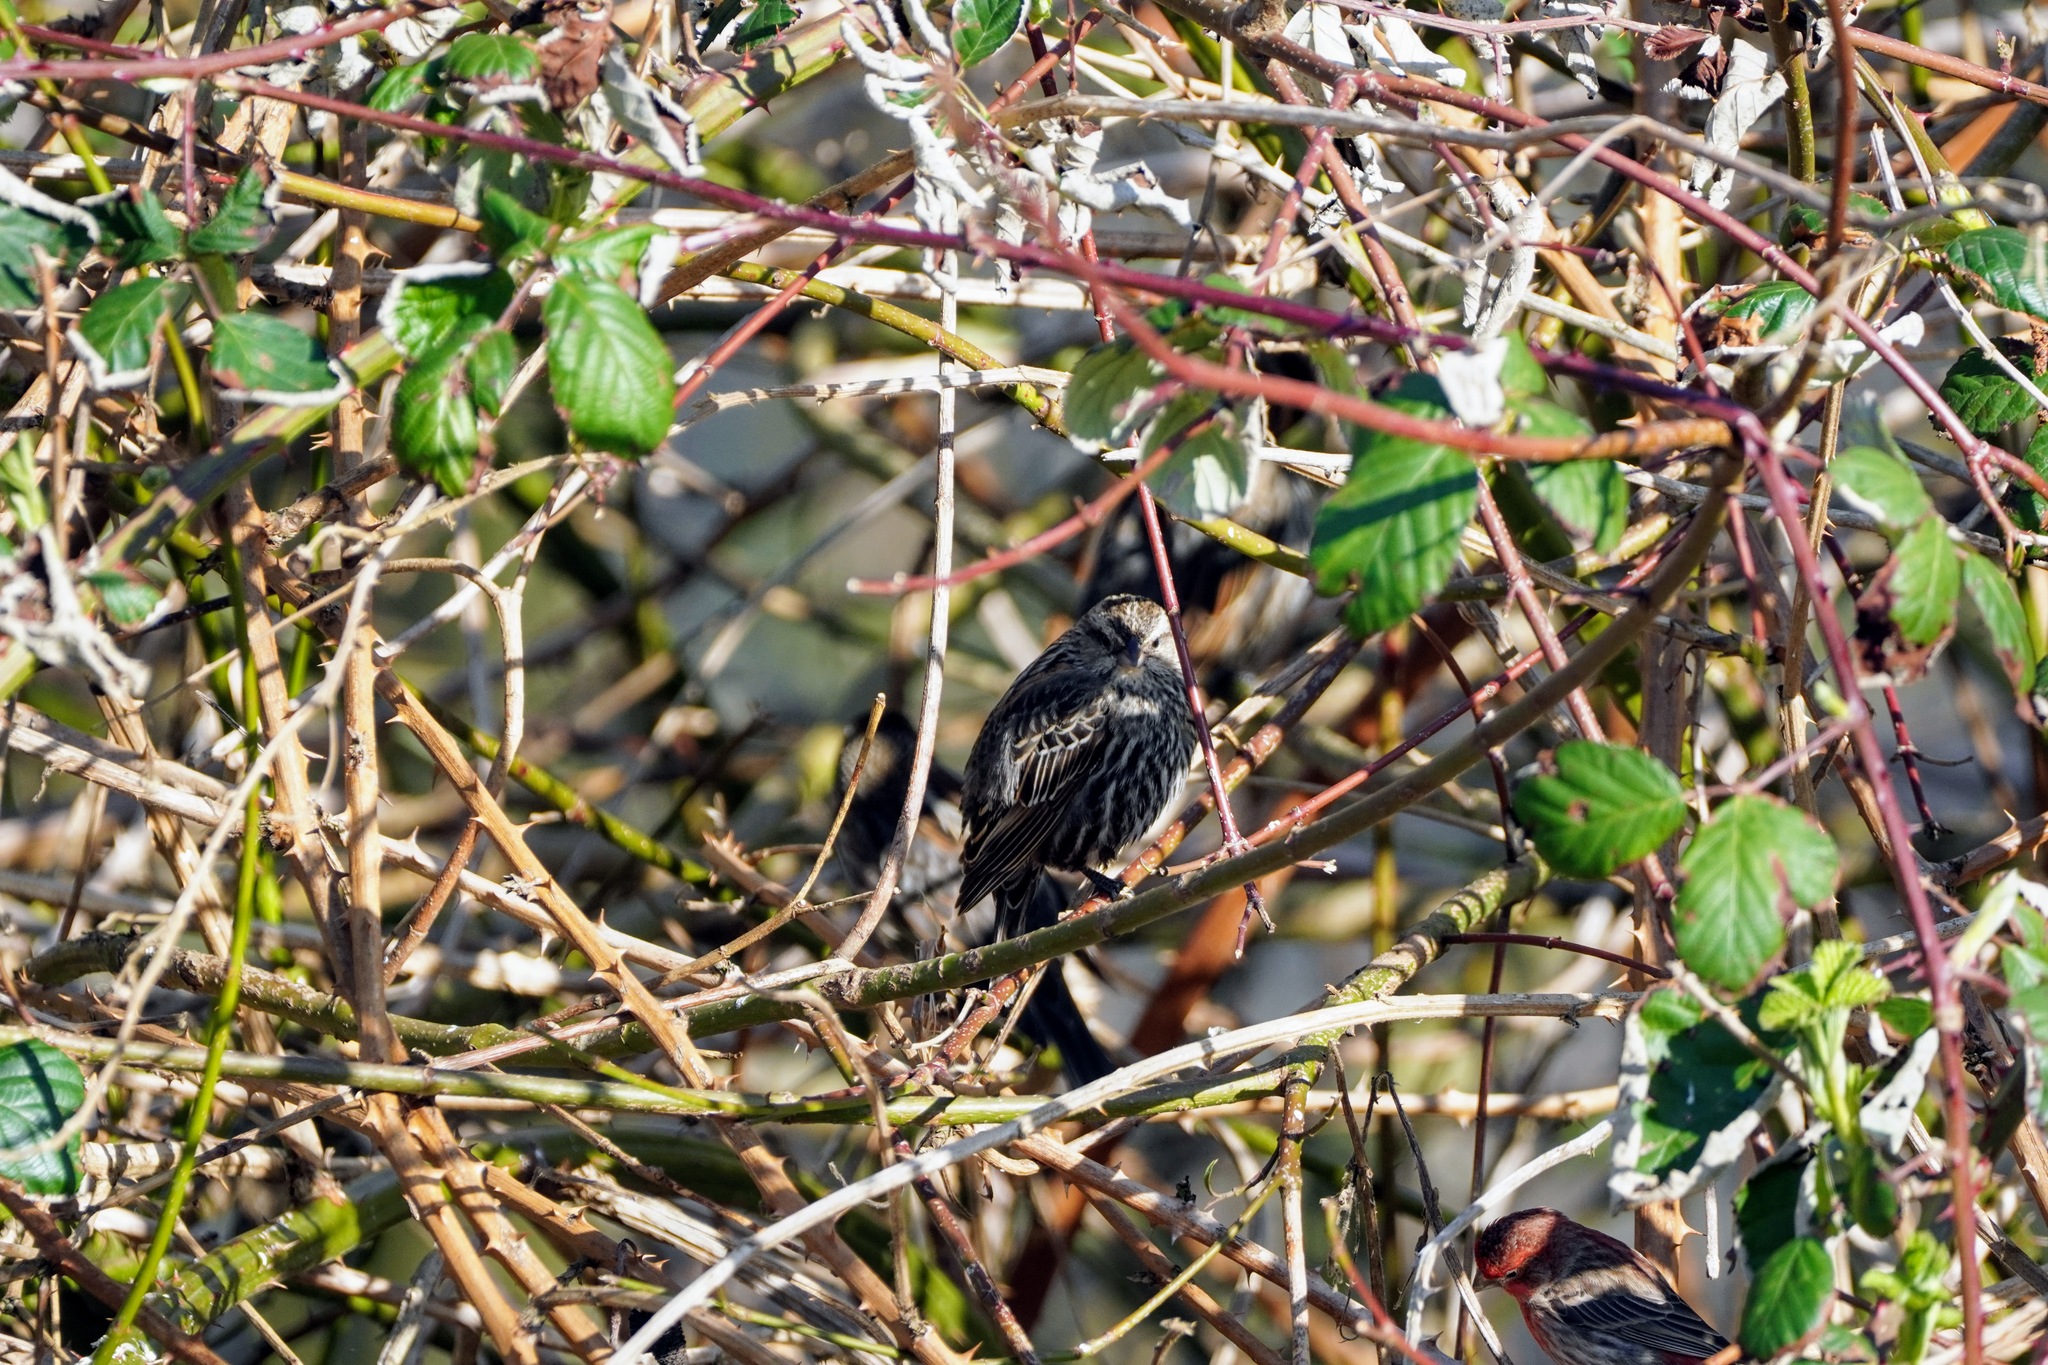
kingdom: Animalia
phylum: Chordata
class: Aves
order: Passeriformes
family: Icteridae
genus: Agelaius
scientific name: Agelaius phoeniceus
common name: Red-winged blackbird
